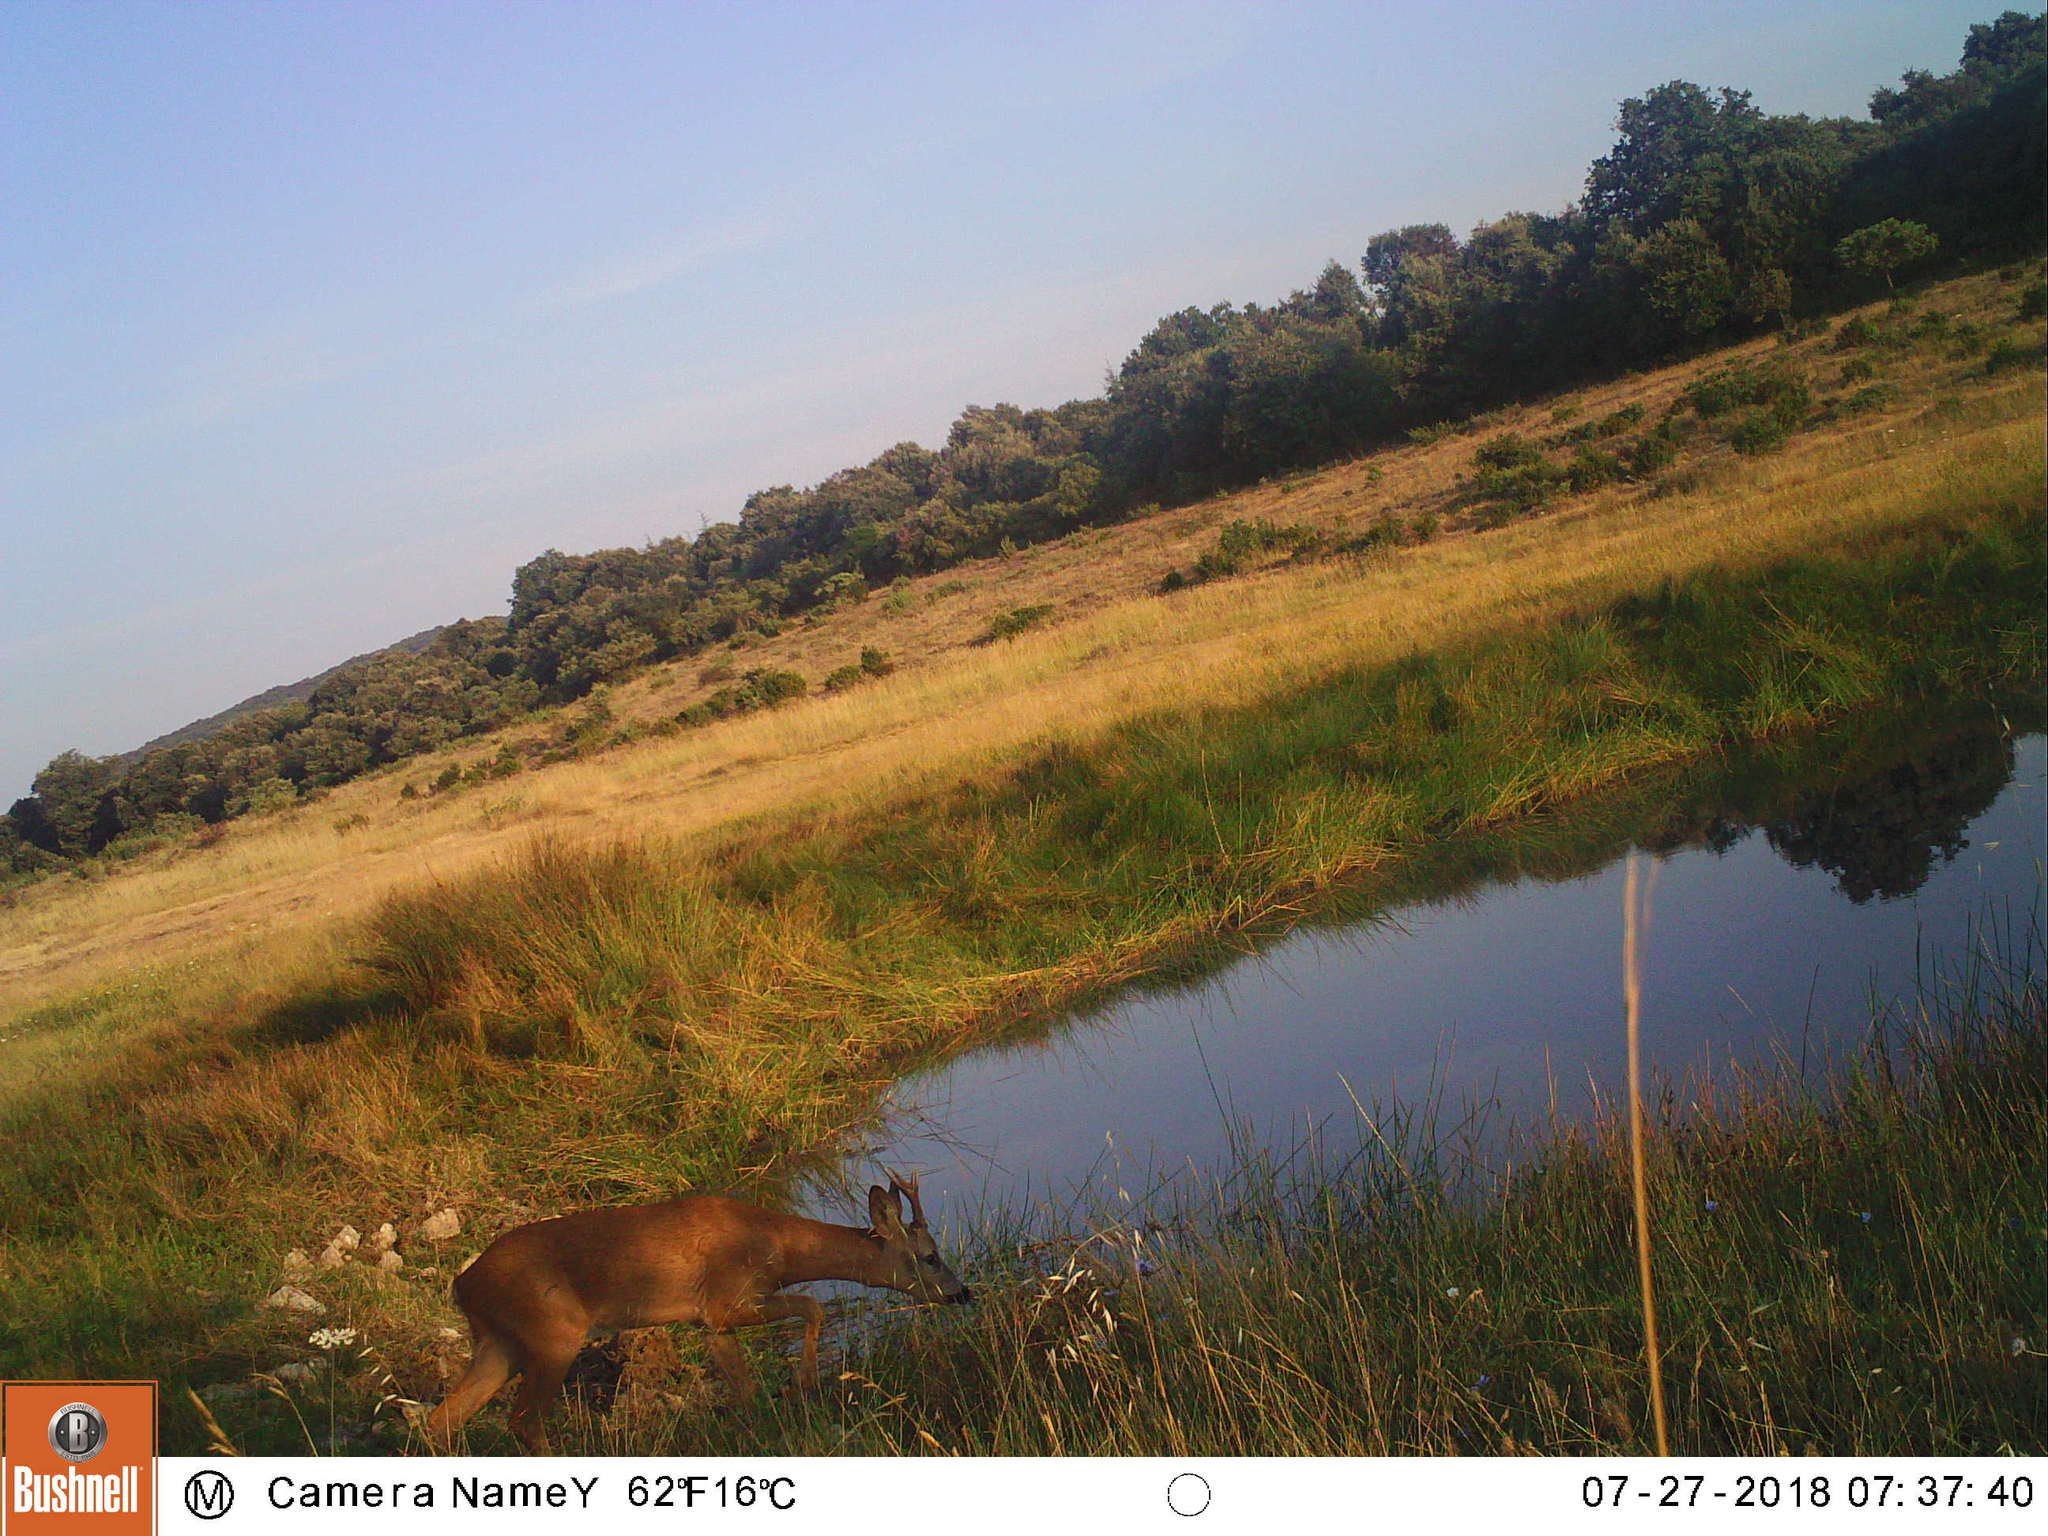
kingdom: Animalia
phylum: Chordata
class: Mammalia
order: Artiodactyla
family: Cervidae
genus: Capreolus
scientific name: Capreolus capreolus
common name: Western roe deer
